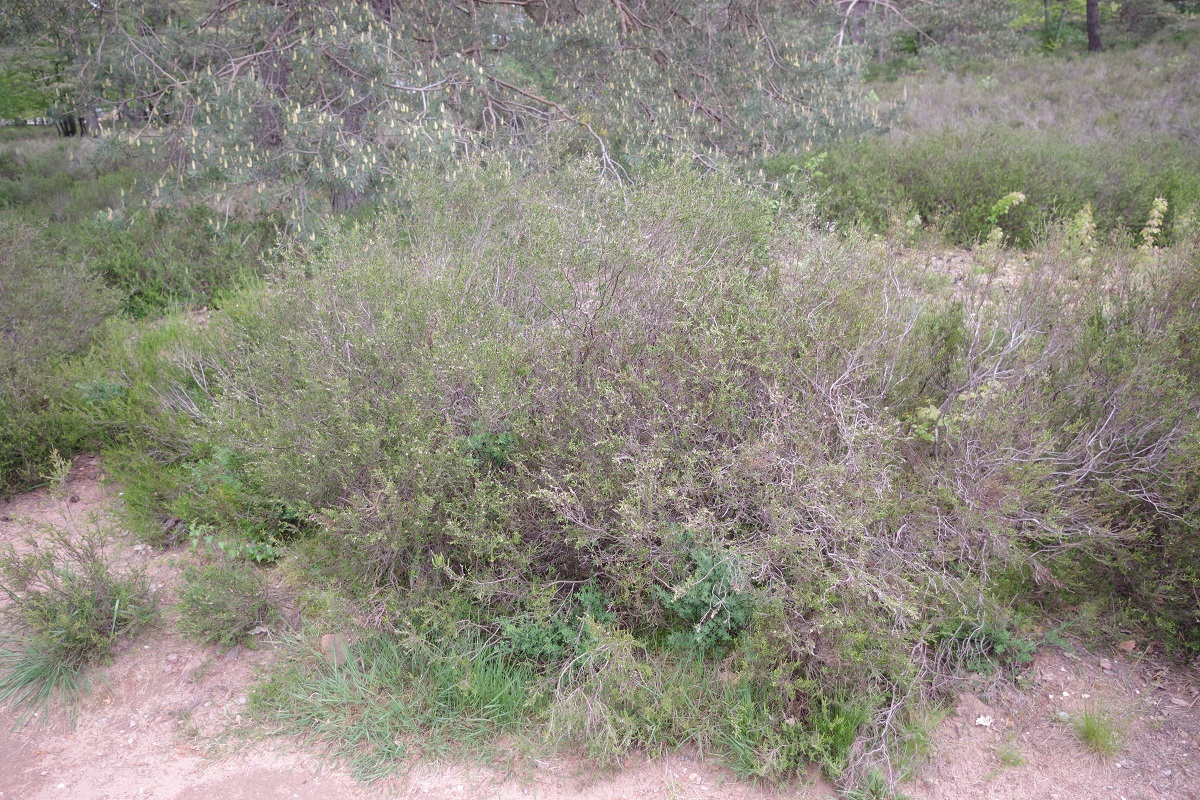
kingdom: Plantae
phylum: Tracheophyta
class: Magnoliopsida
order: Ericales
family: Ericaceae
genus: Calluna
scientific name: Calluna vulgaris
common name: Heather
